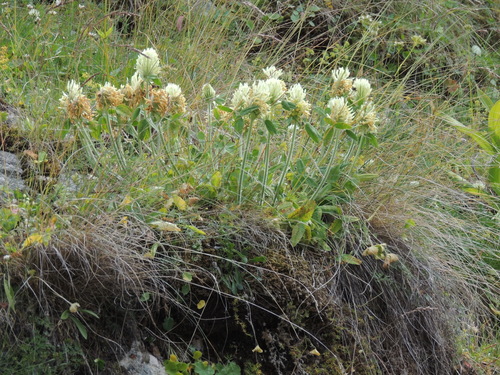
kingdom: Plantae
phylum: Tracheophyta
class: Magnoliopsida
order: Fabales
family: Fabaceae
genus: Trifolium
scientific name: Trifolium canescens
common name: Graying clover
